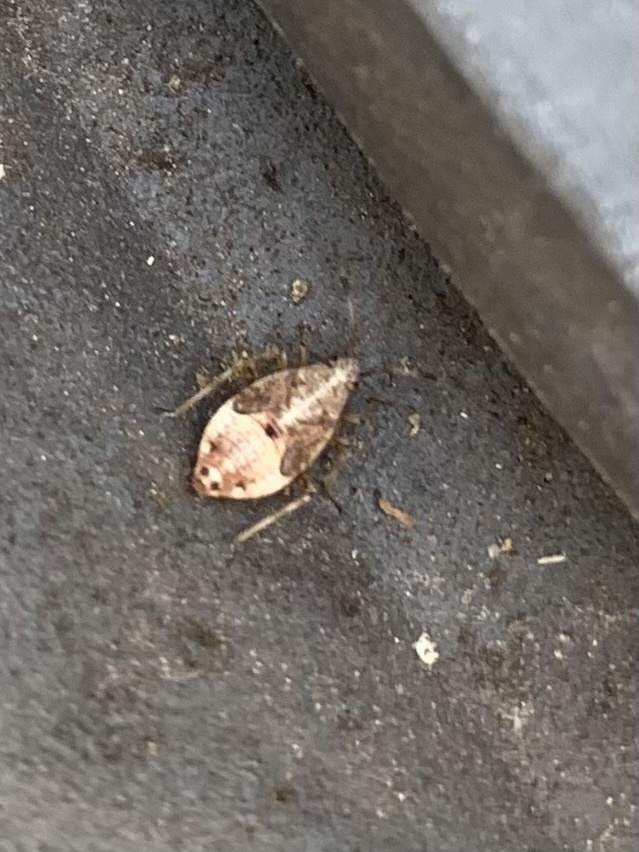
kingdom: Animalia
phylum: Arthropoda
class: Insecta
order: Hemiptera
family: Miridae
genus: Deraeocoris
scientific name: Deraeocoris flavilinea
